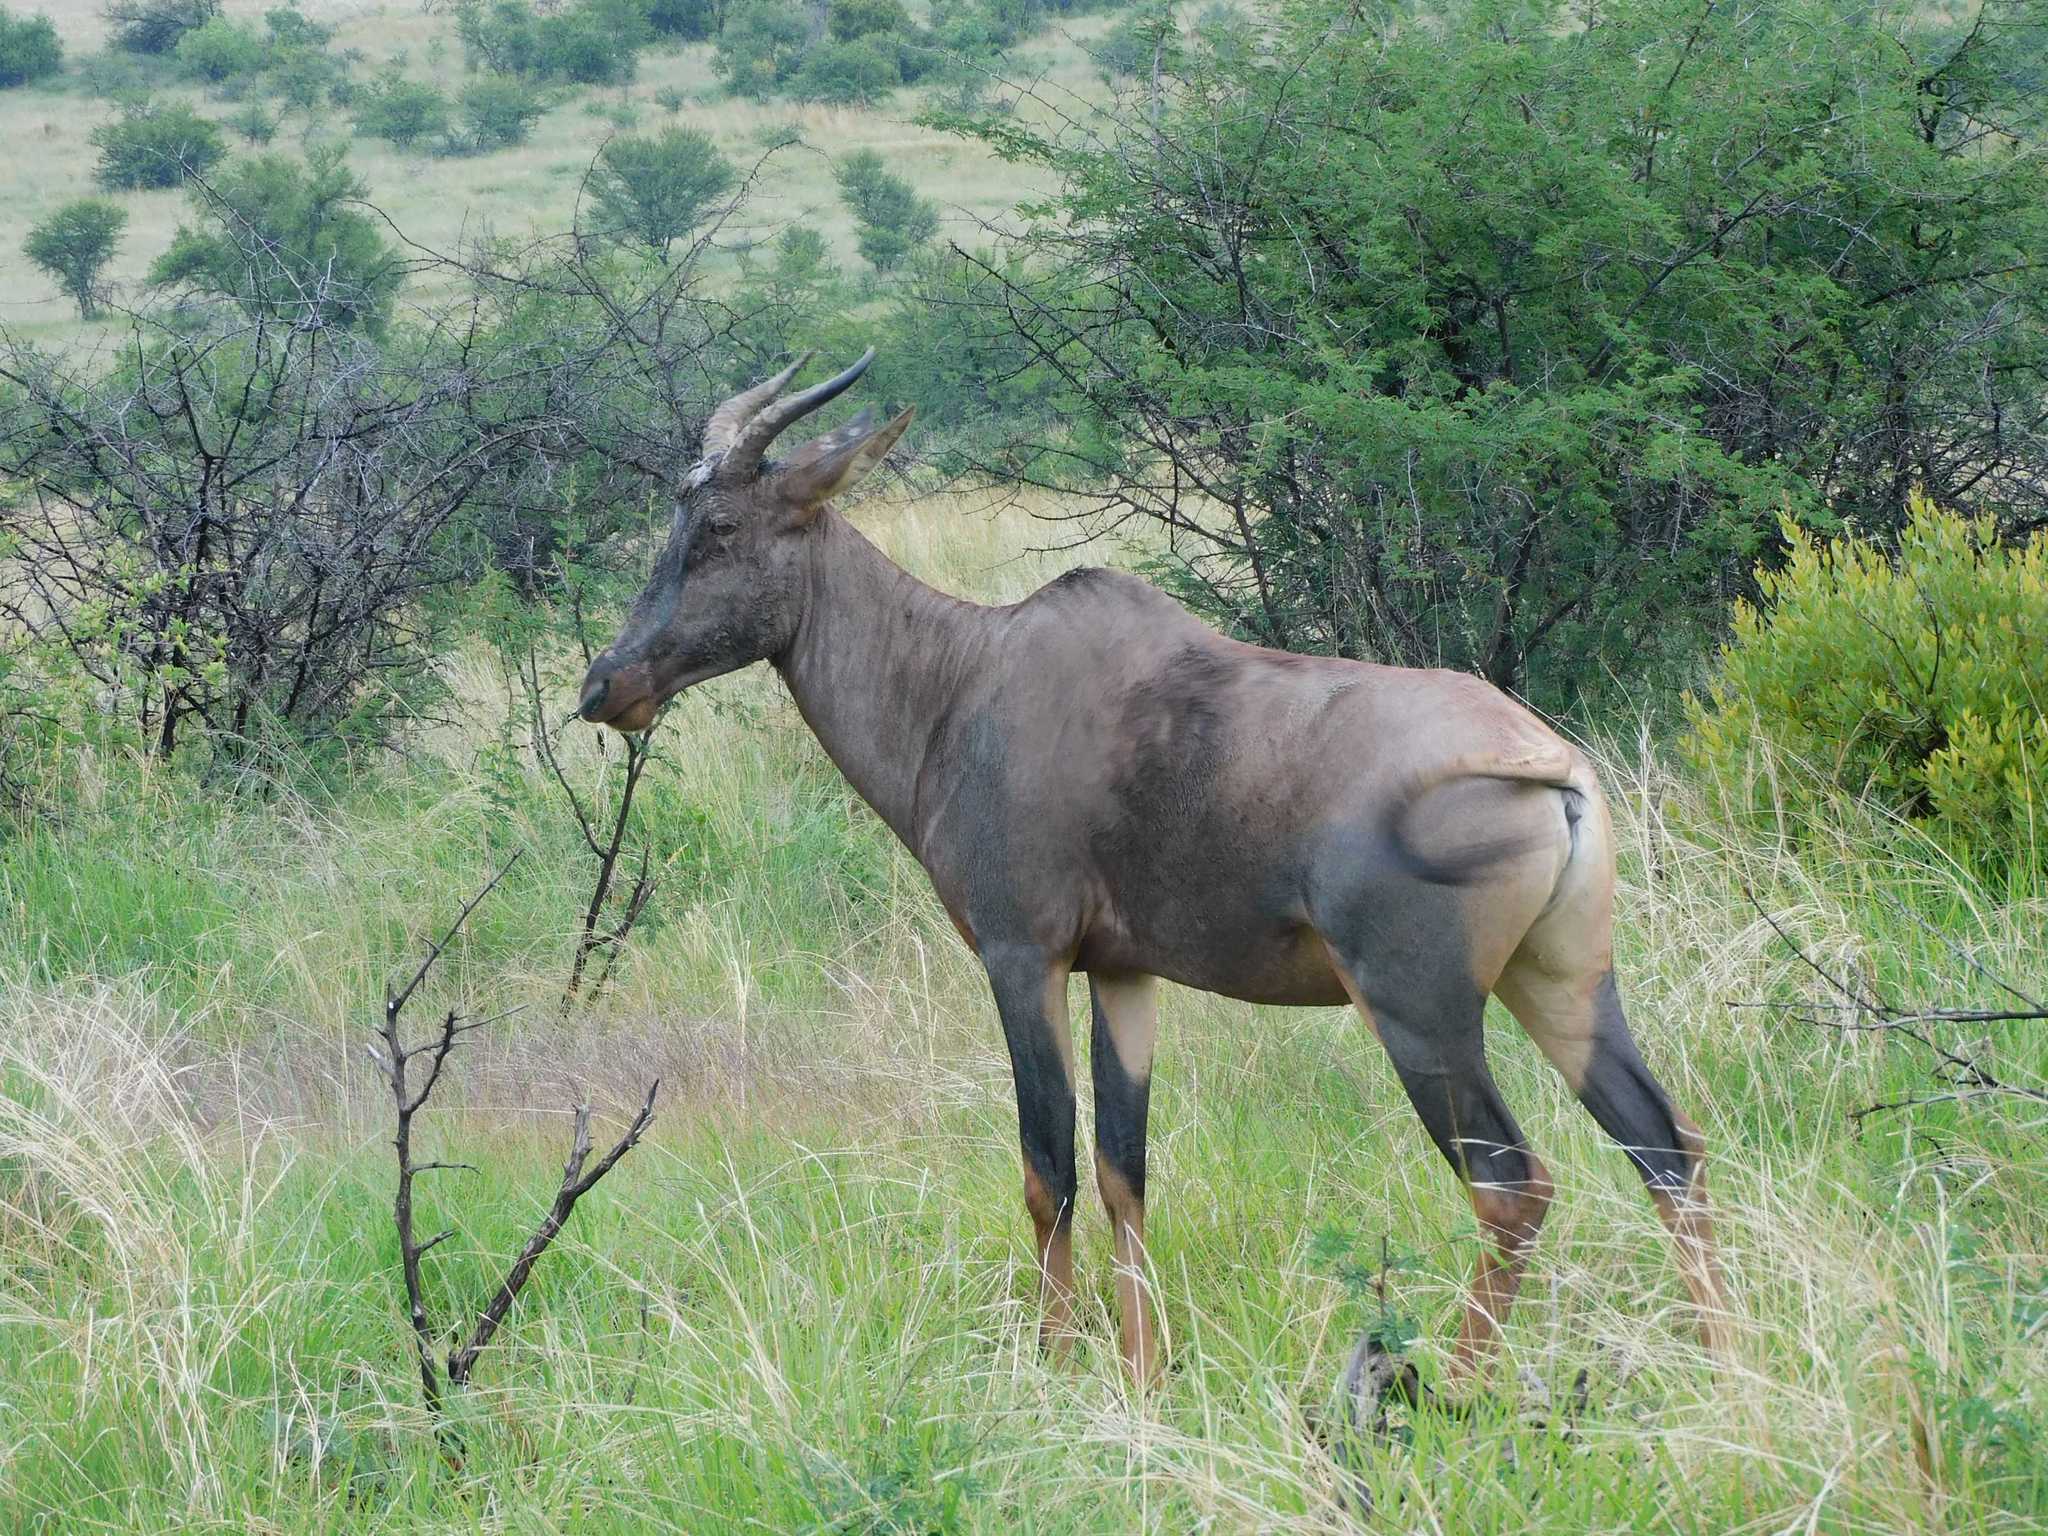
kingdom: Animalia
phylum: Chordata
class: Mammalia
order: Artiodactyla
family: Bovidae
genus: Damaliscus
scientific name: Damaliscus lunatus
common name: Common tsessebe
